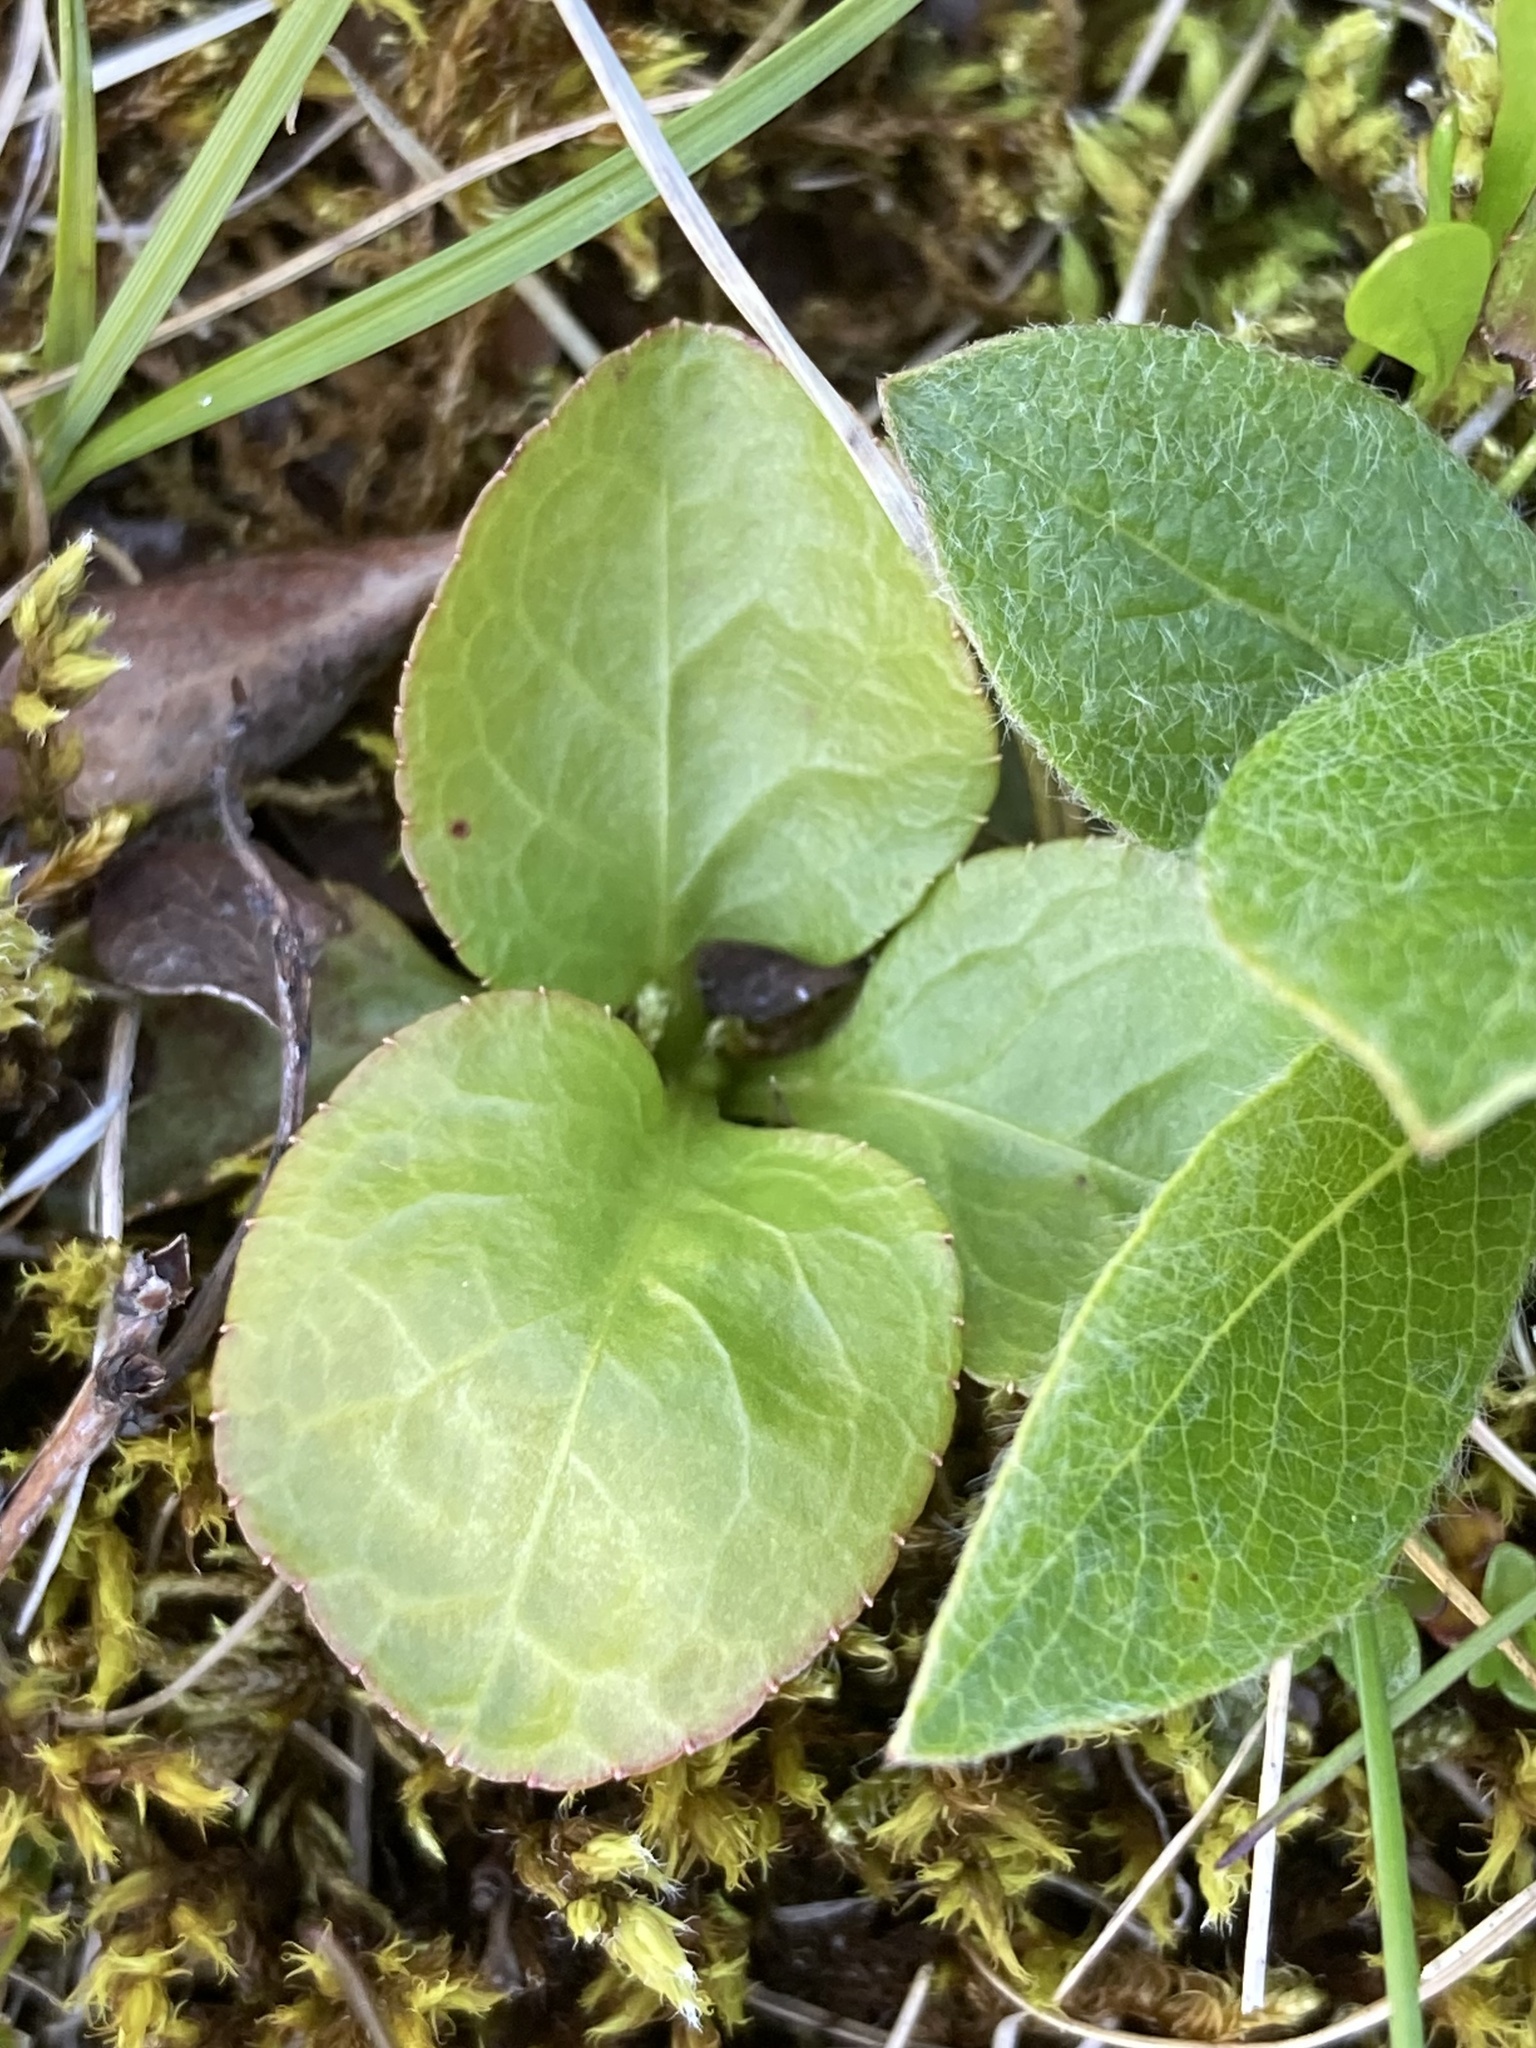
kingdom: Plantae
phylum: Tracheophyta
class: Magnoliopsida
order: Ericales
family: Ericaceae
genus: Pyrola
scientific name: Pyrola minor
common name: Common wintergreen
